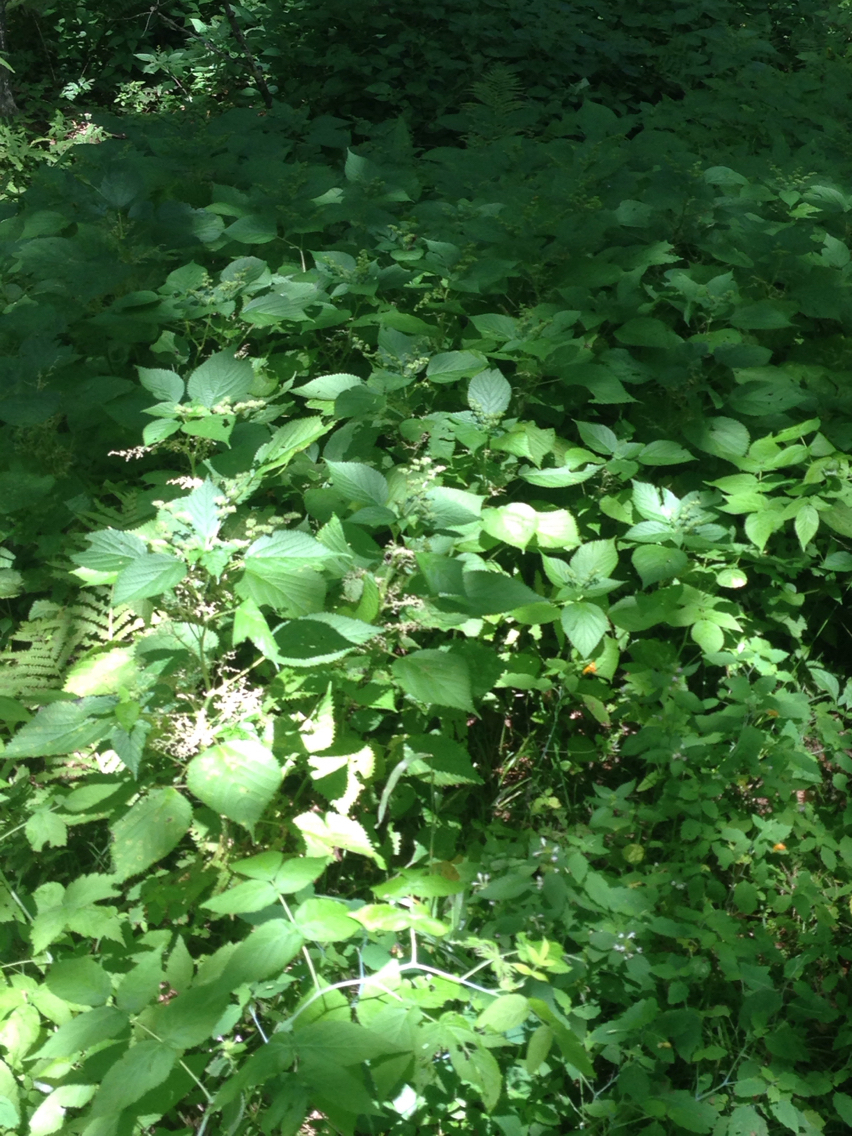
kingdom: Plantae
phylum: Tracheophyta
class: Magnoliopsida
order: Rosales
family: Urticaceae
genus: Laportea
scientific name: Laportea canadensis
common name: Canada nettle
